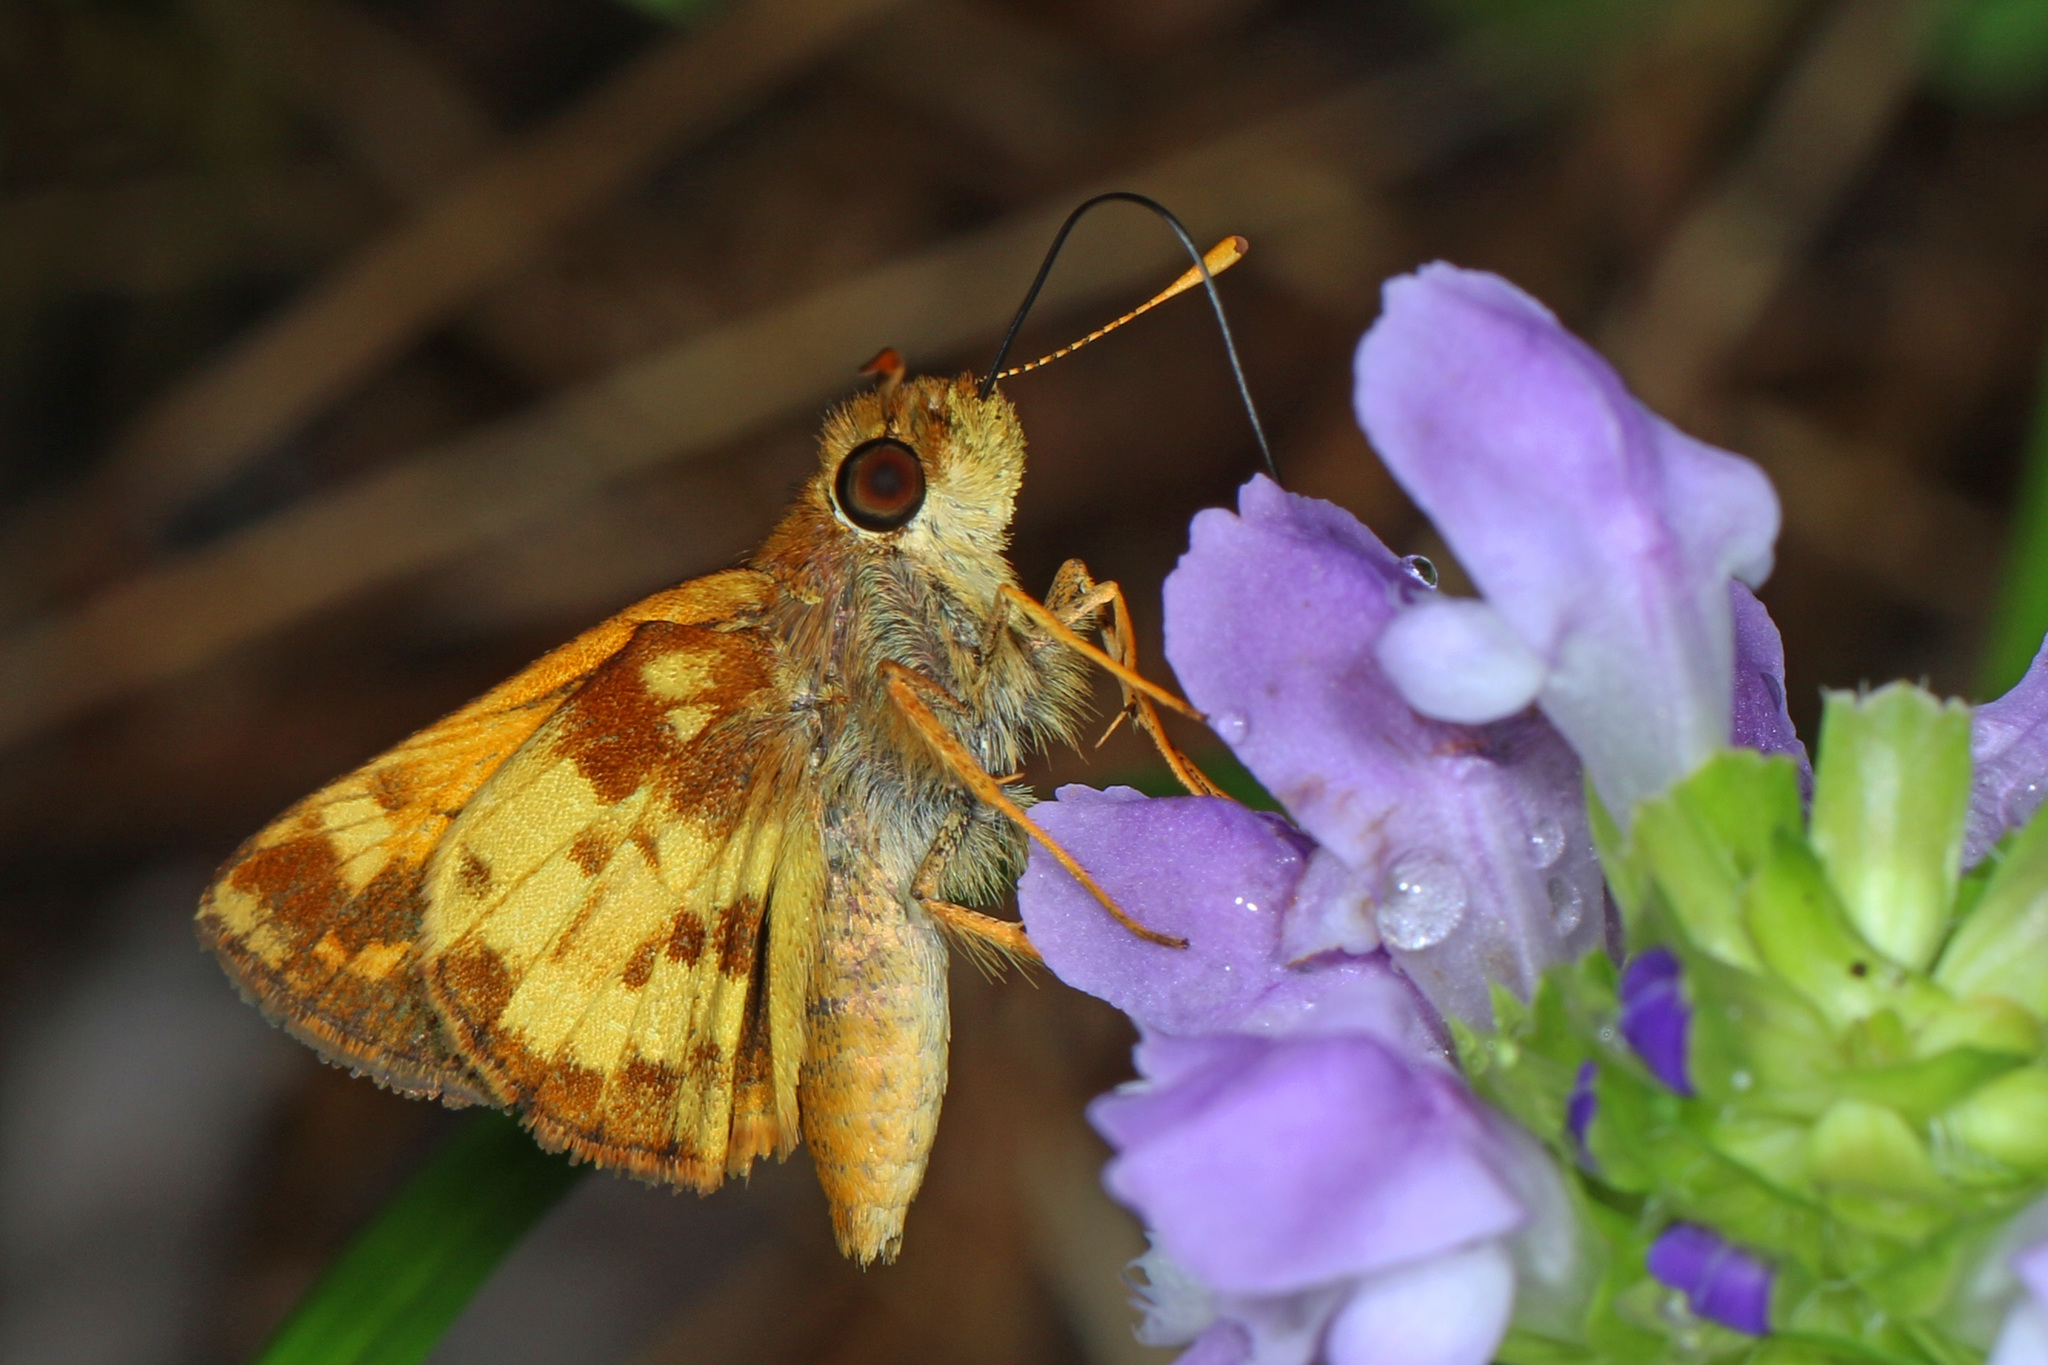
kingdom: Animalia
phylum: Arthropoda
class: Insecta
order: Lepidoptera
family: Hesperiidae
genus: Lon
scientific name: Lon zabulon
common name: Zabulon skipper
